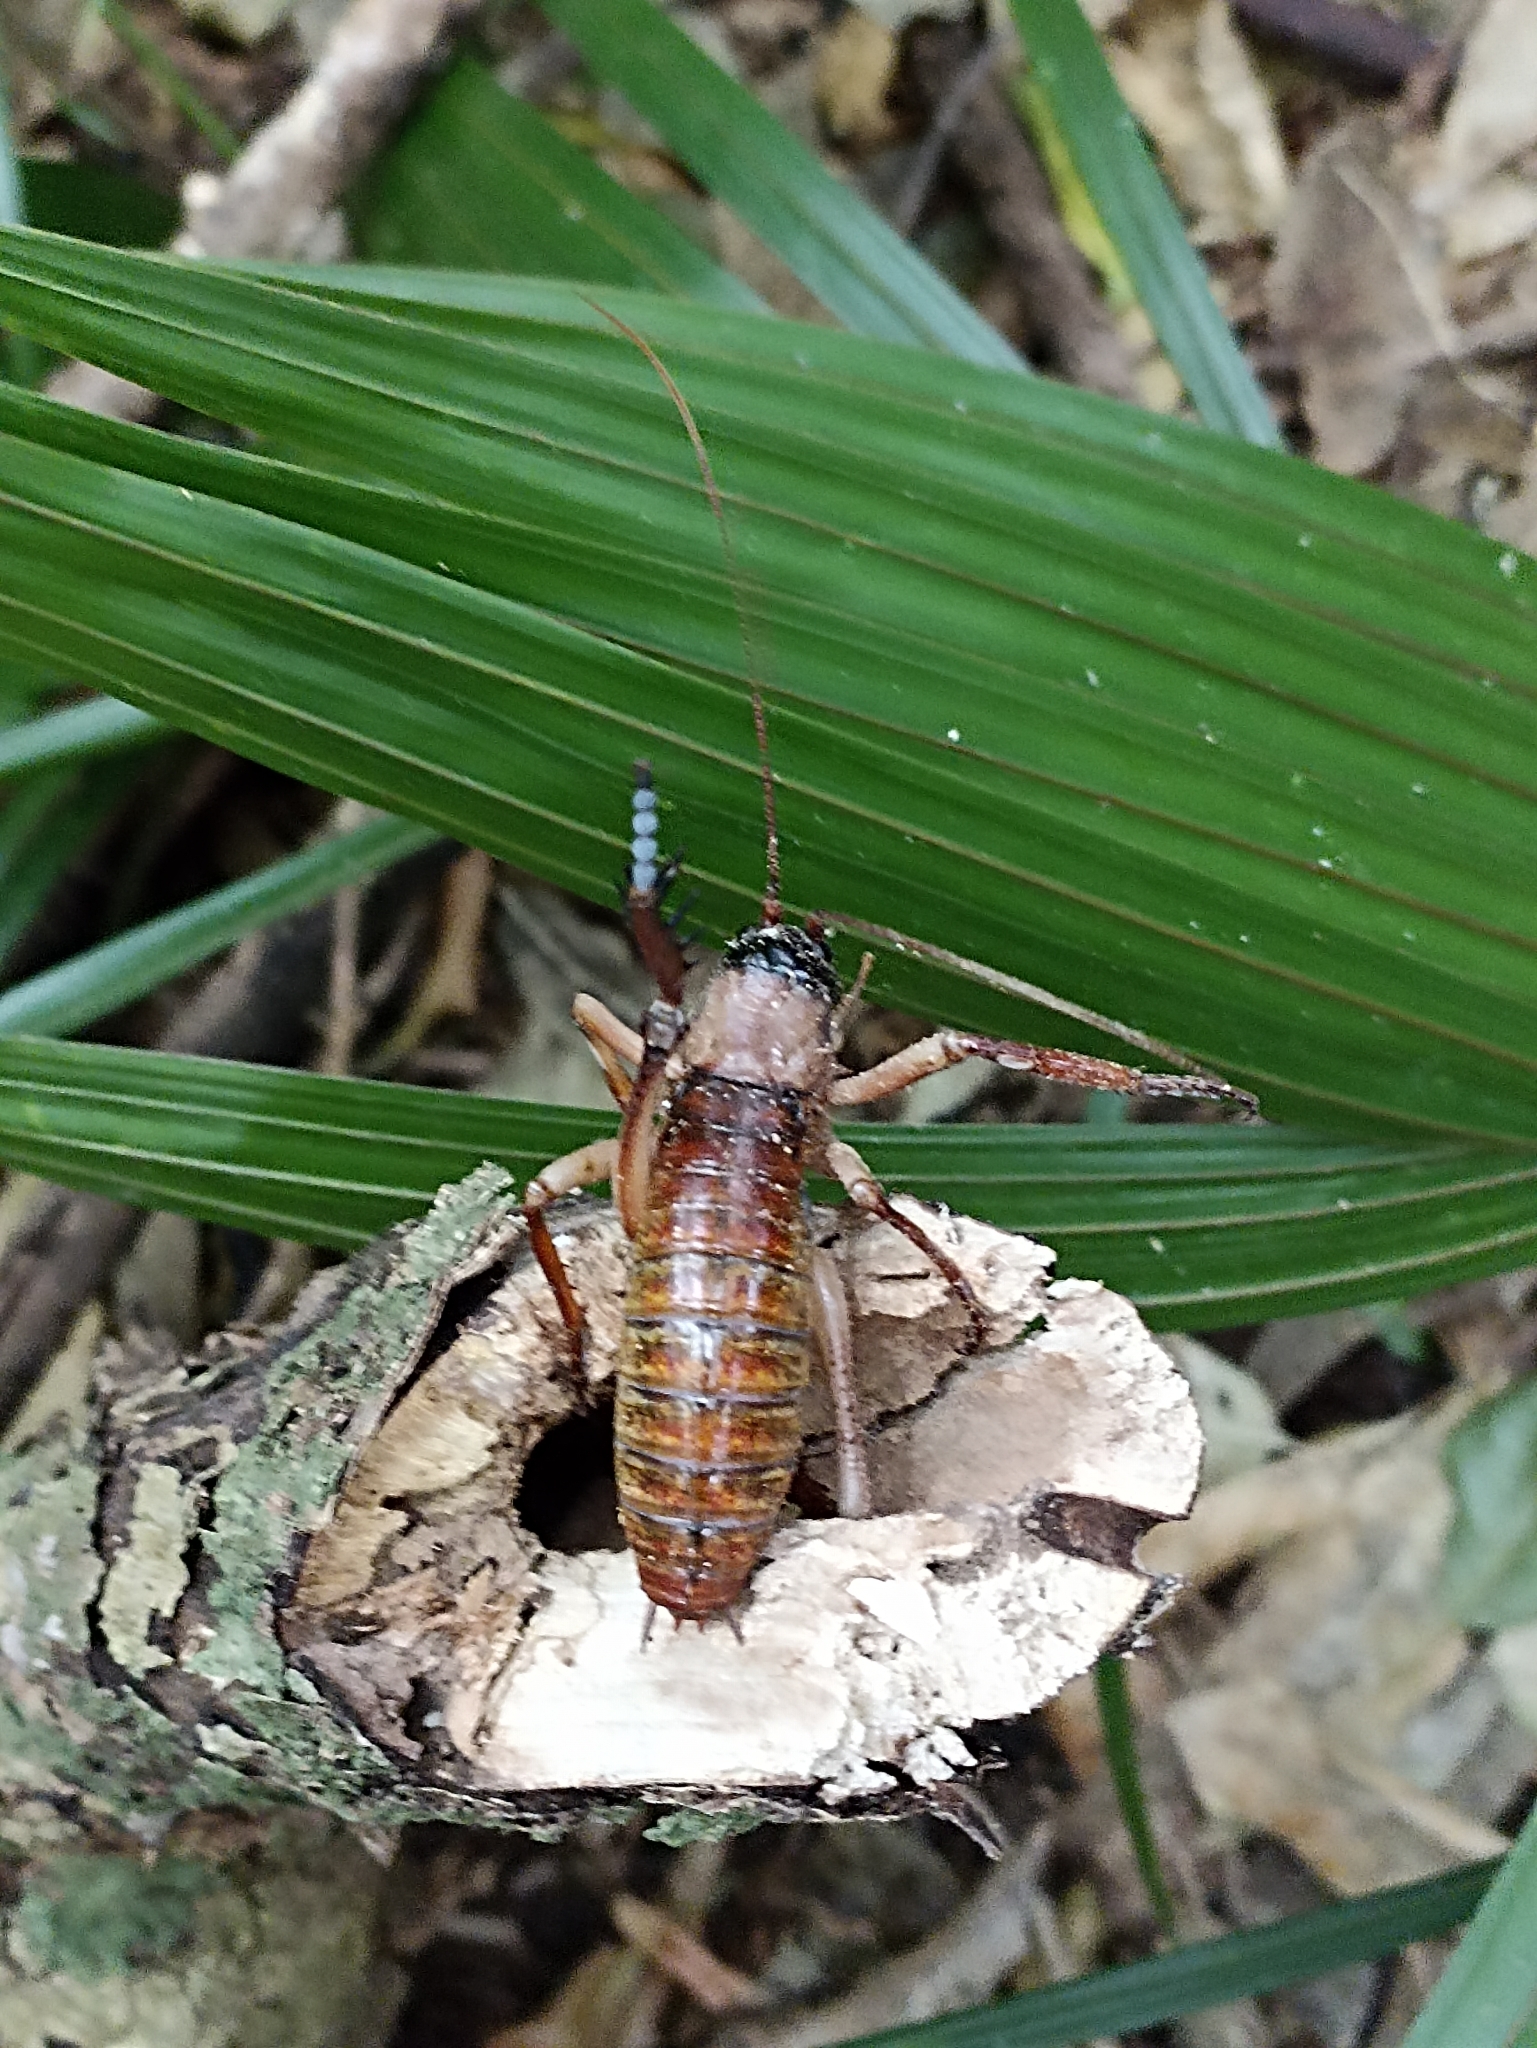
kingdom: Animalia
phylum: Arthropoda
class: Insecta
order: Orthoptera
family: Anostostomatidae
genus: Hemideina
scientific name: Hemideina thoracica
